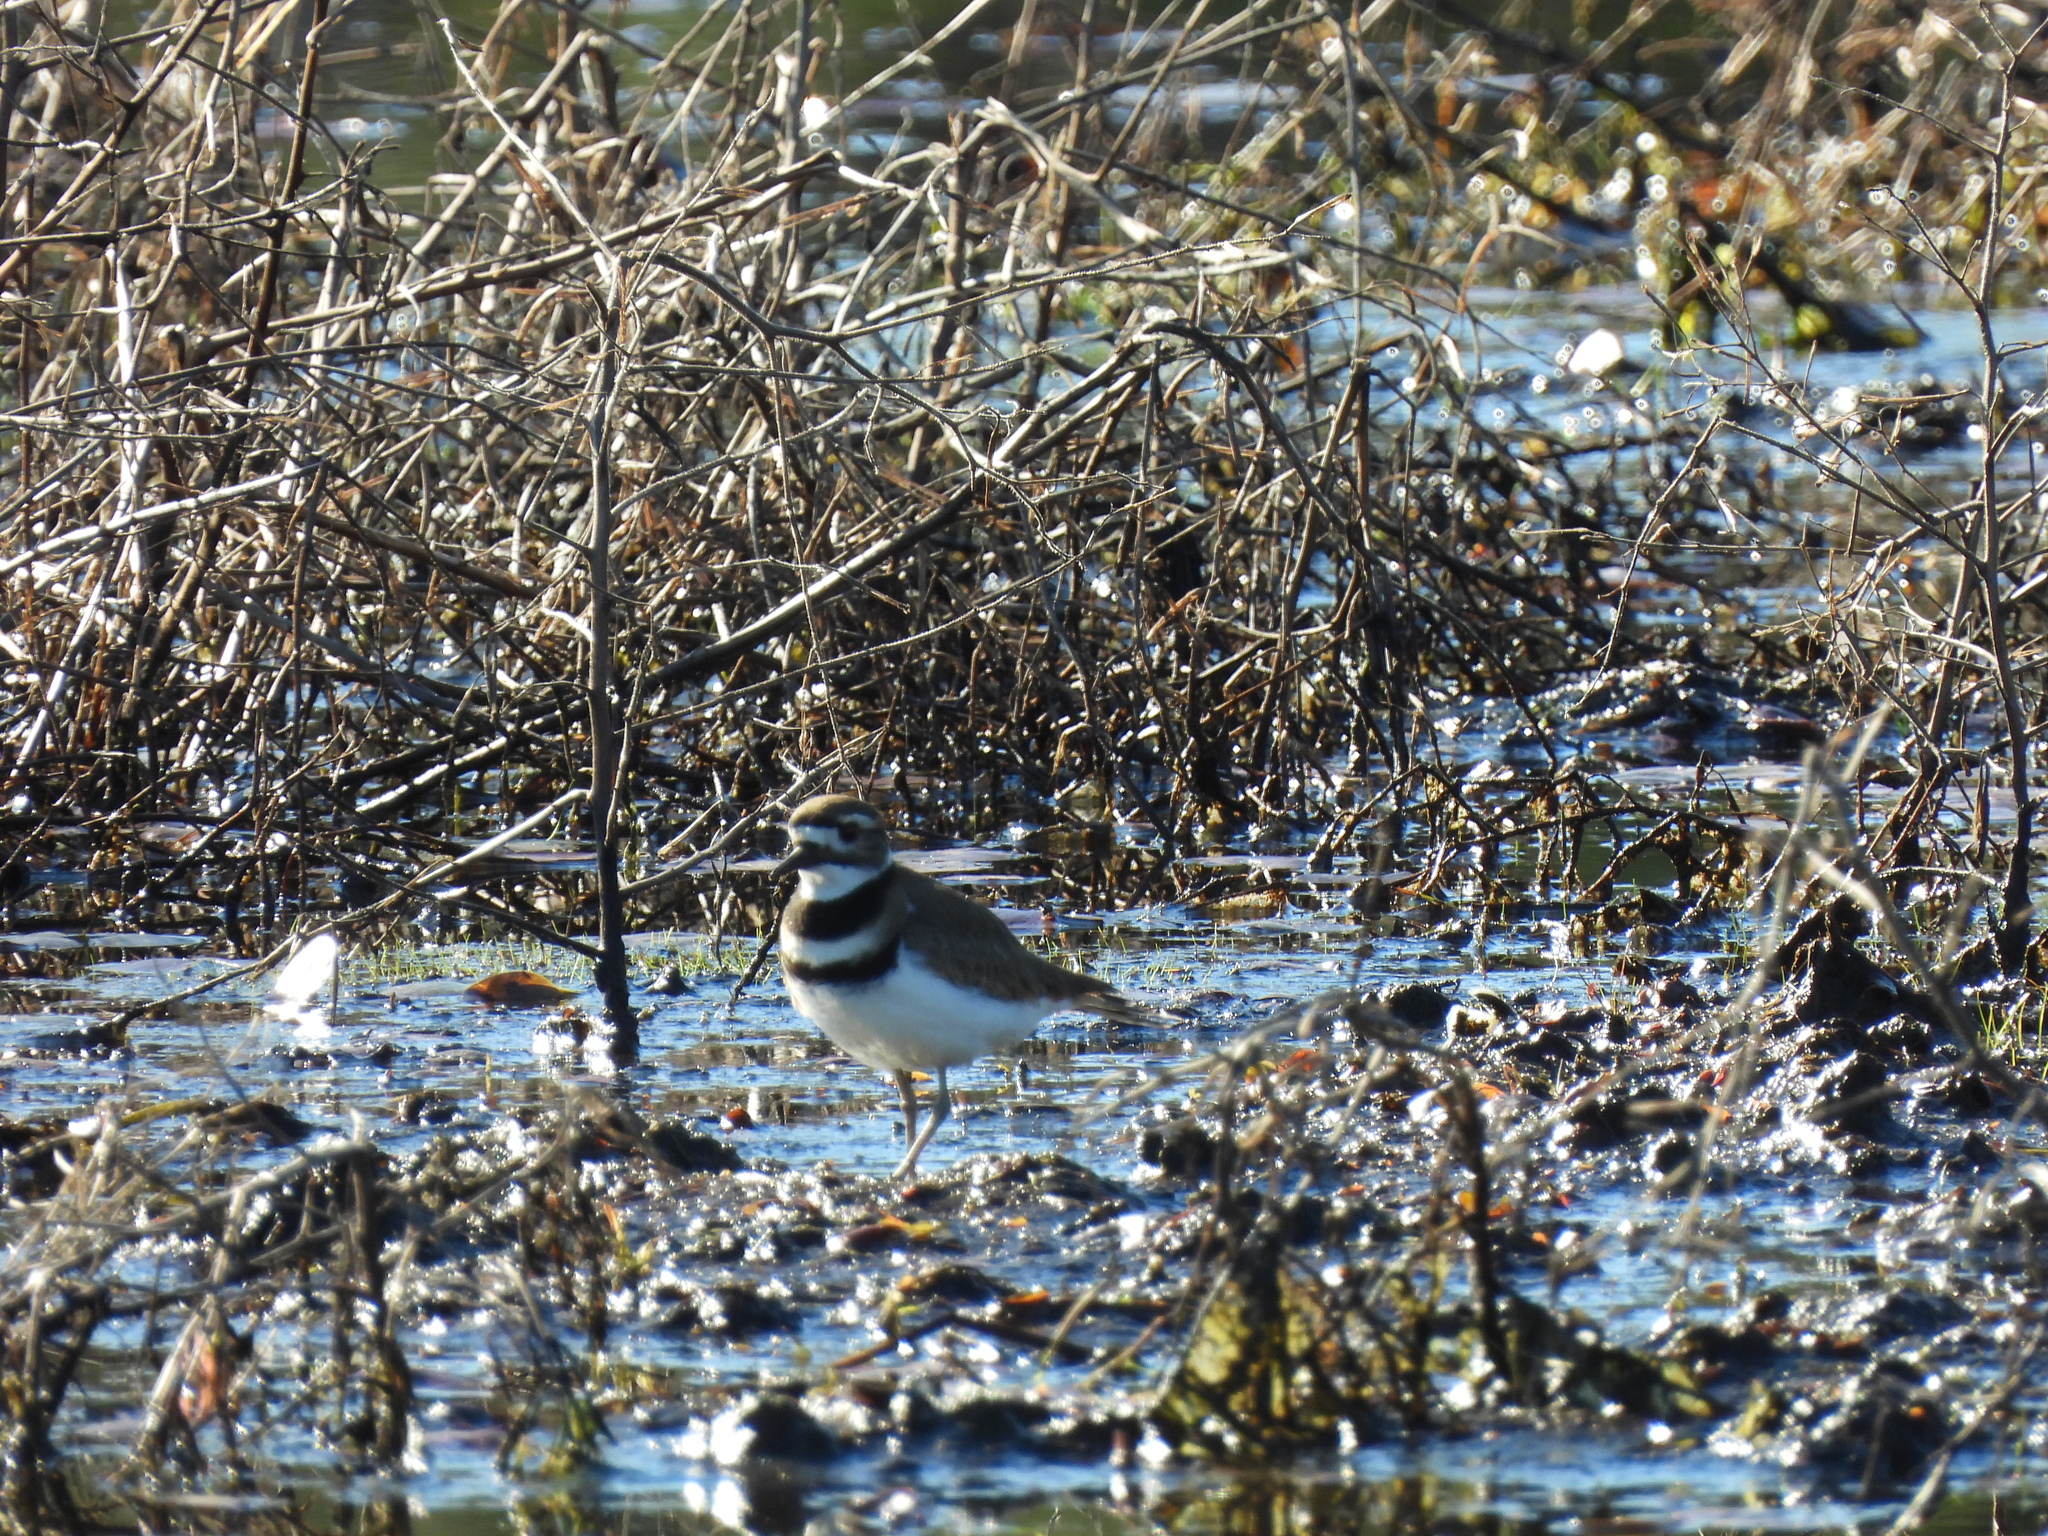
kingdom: Animalia
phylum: Chordata
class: Aves
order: Charadriiformes
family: Charadriidae
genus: Charadrius
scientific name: Charadrius vociferus
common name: Killdeer
